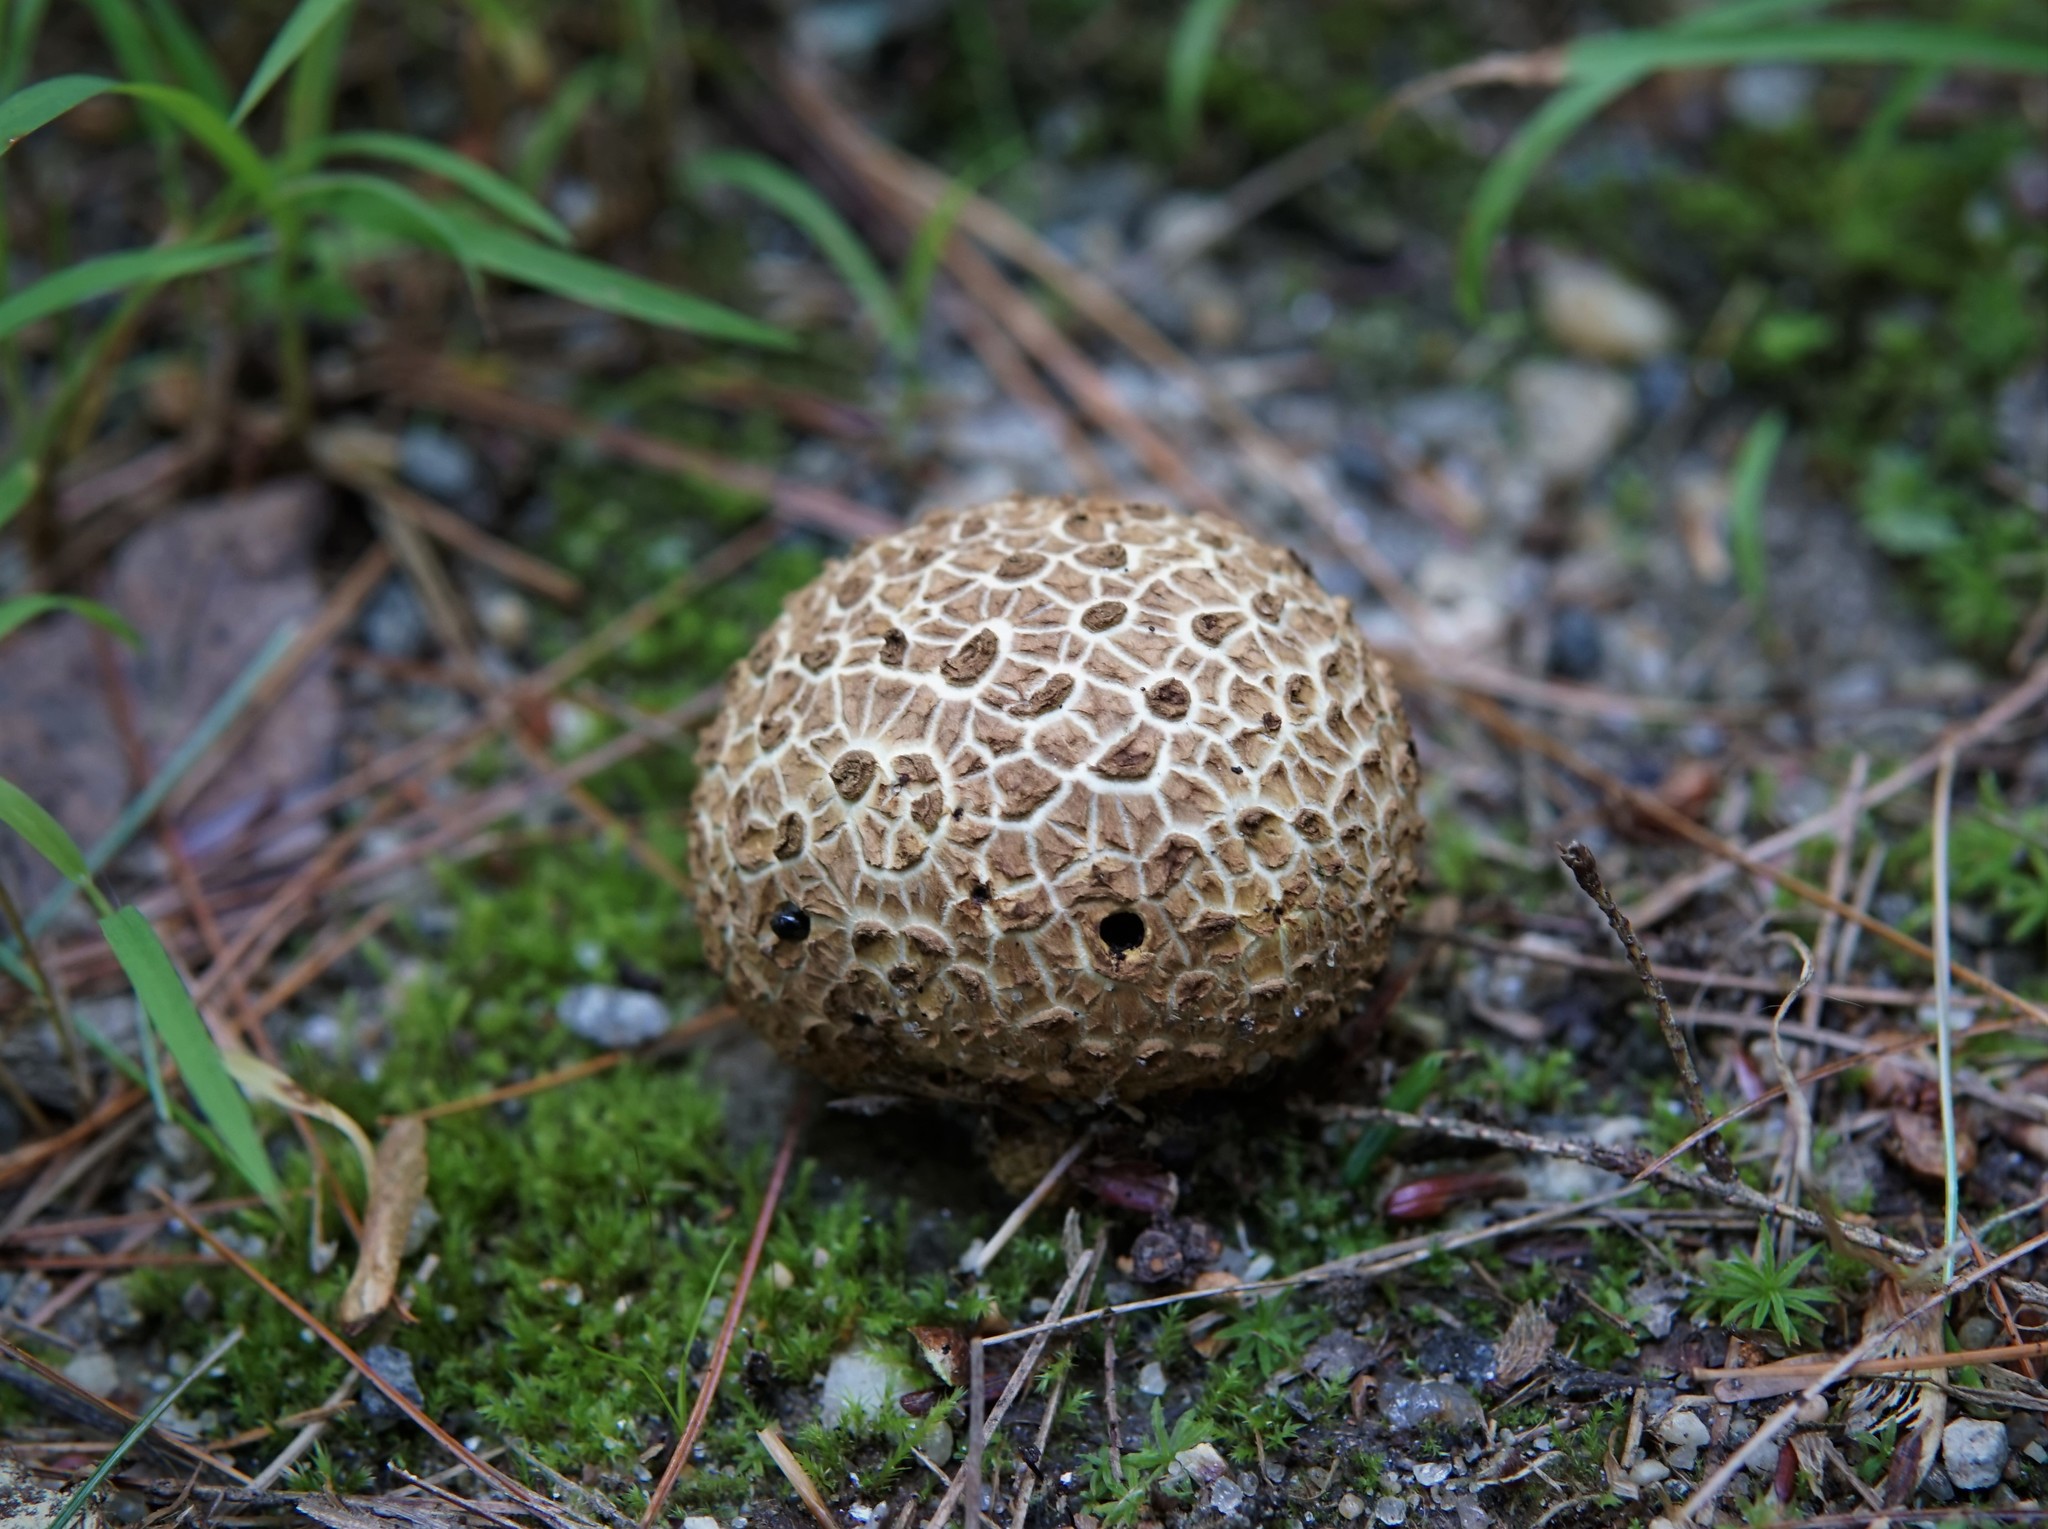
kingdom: Fungi
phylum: Basidiomycota
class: Agaricomycetes
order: Boletales
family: Sclerodermataceae
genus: Scleroderma
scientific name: Scleroderma citrinum
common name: Common earthball
